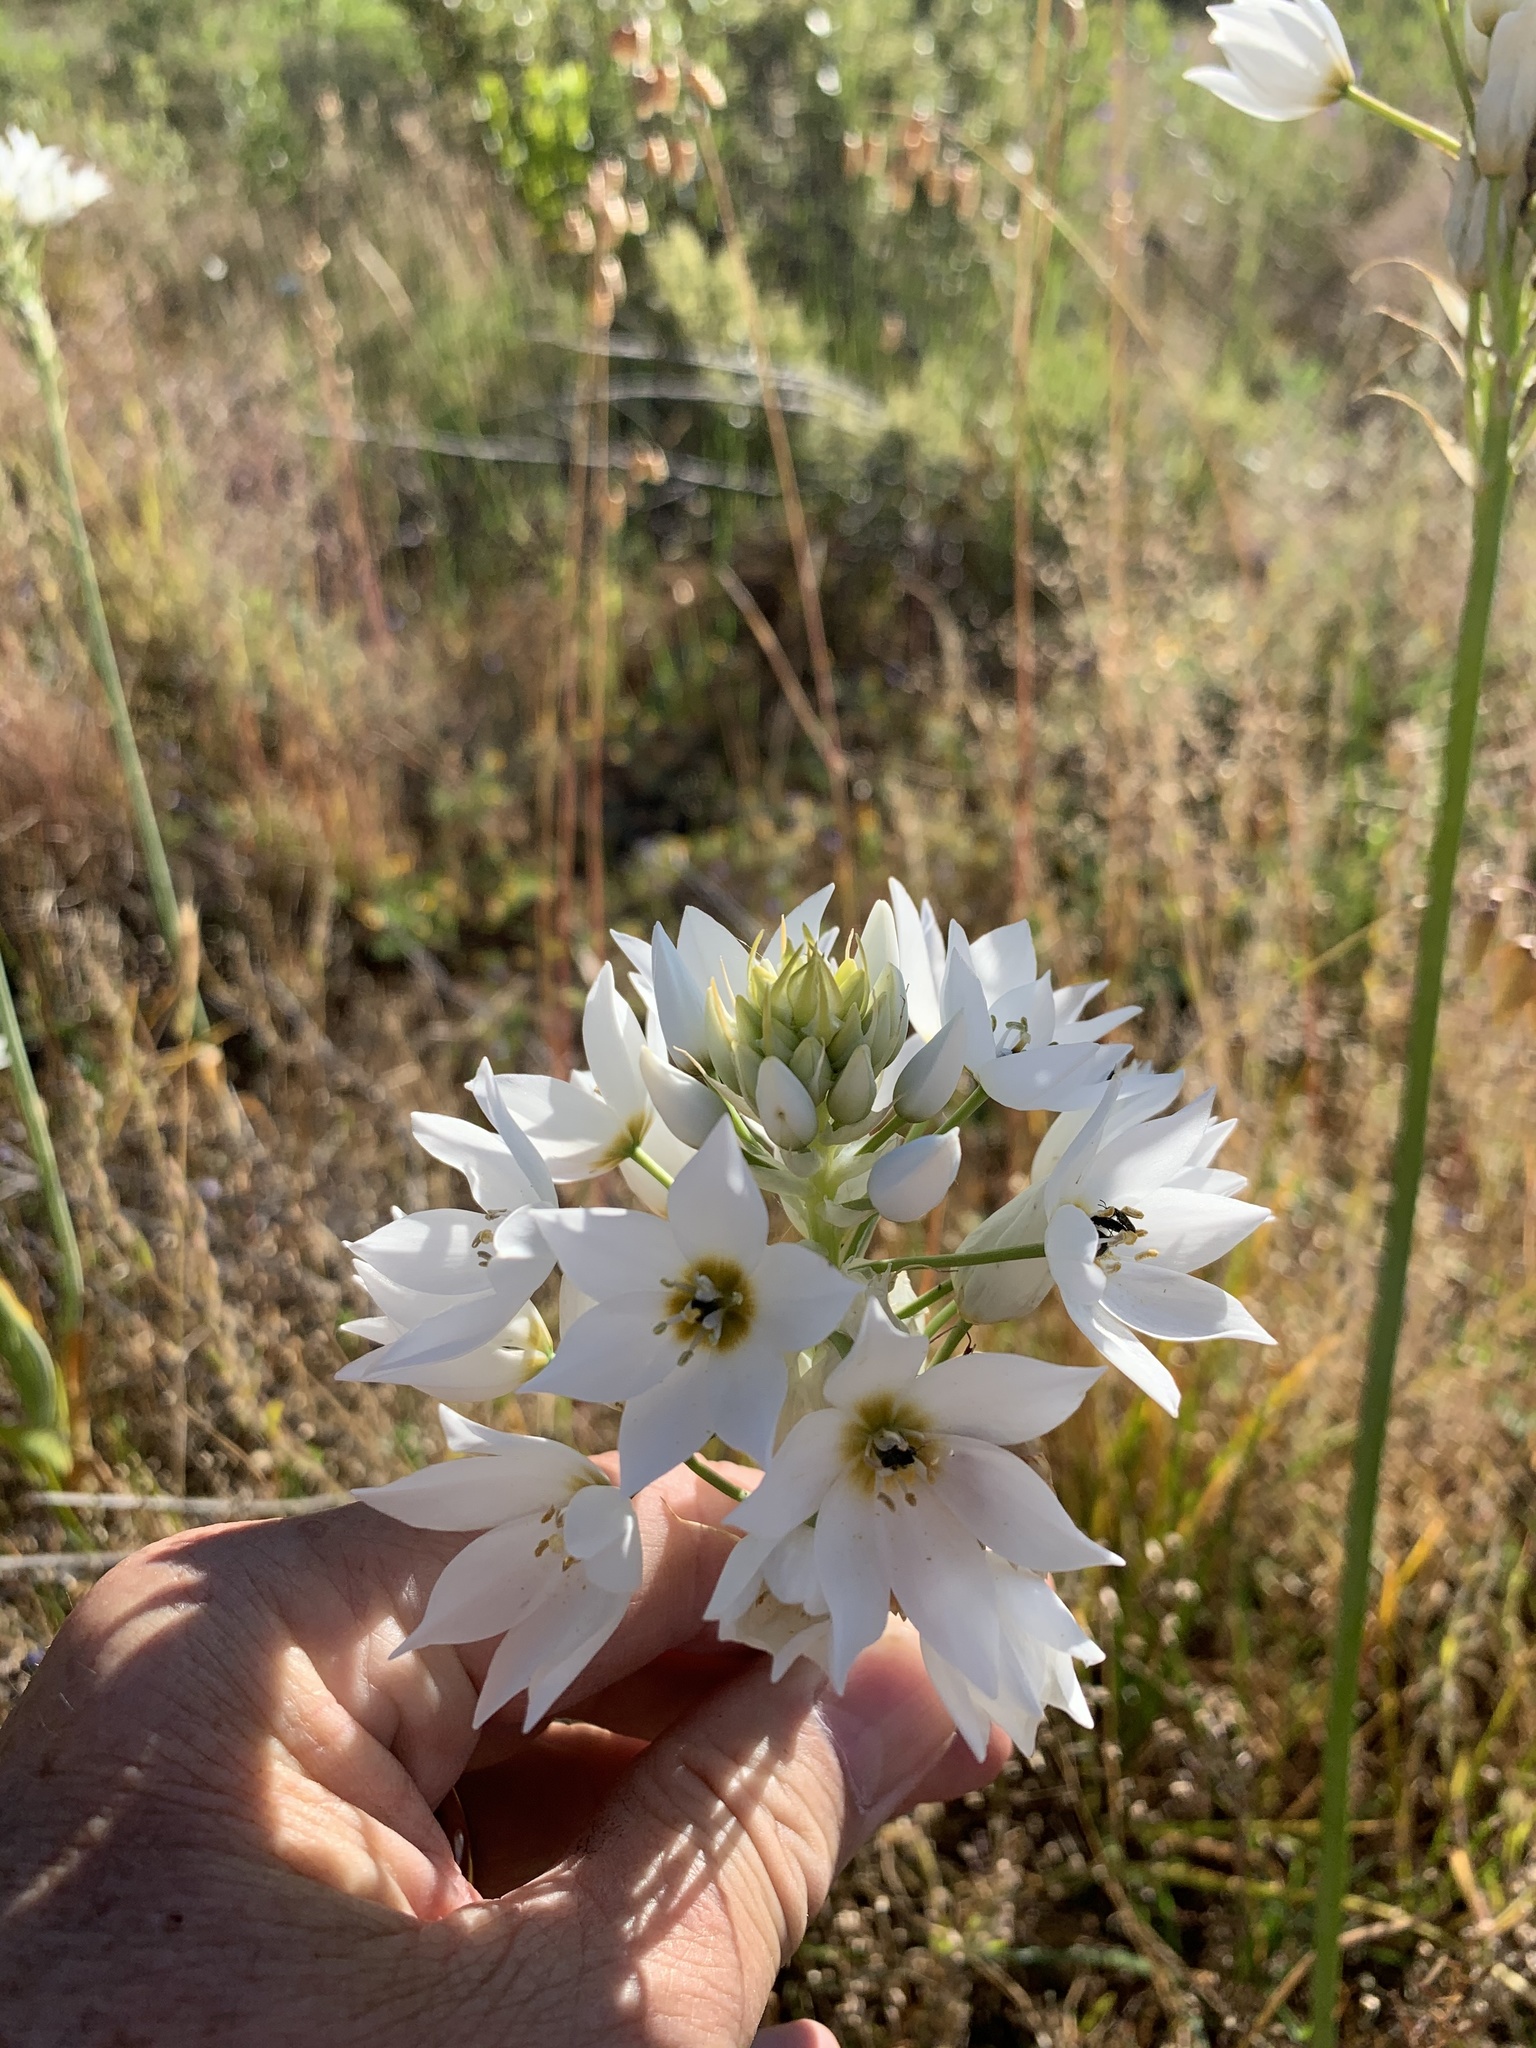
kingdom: Plantae
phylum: Tracheophyta
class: Liliopsida
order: Asparagales
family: Asparagaceae
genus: Ornithogalum
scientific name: Ornithogalum thyrsoides
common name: Chincherinchee
